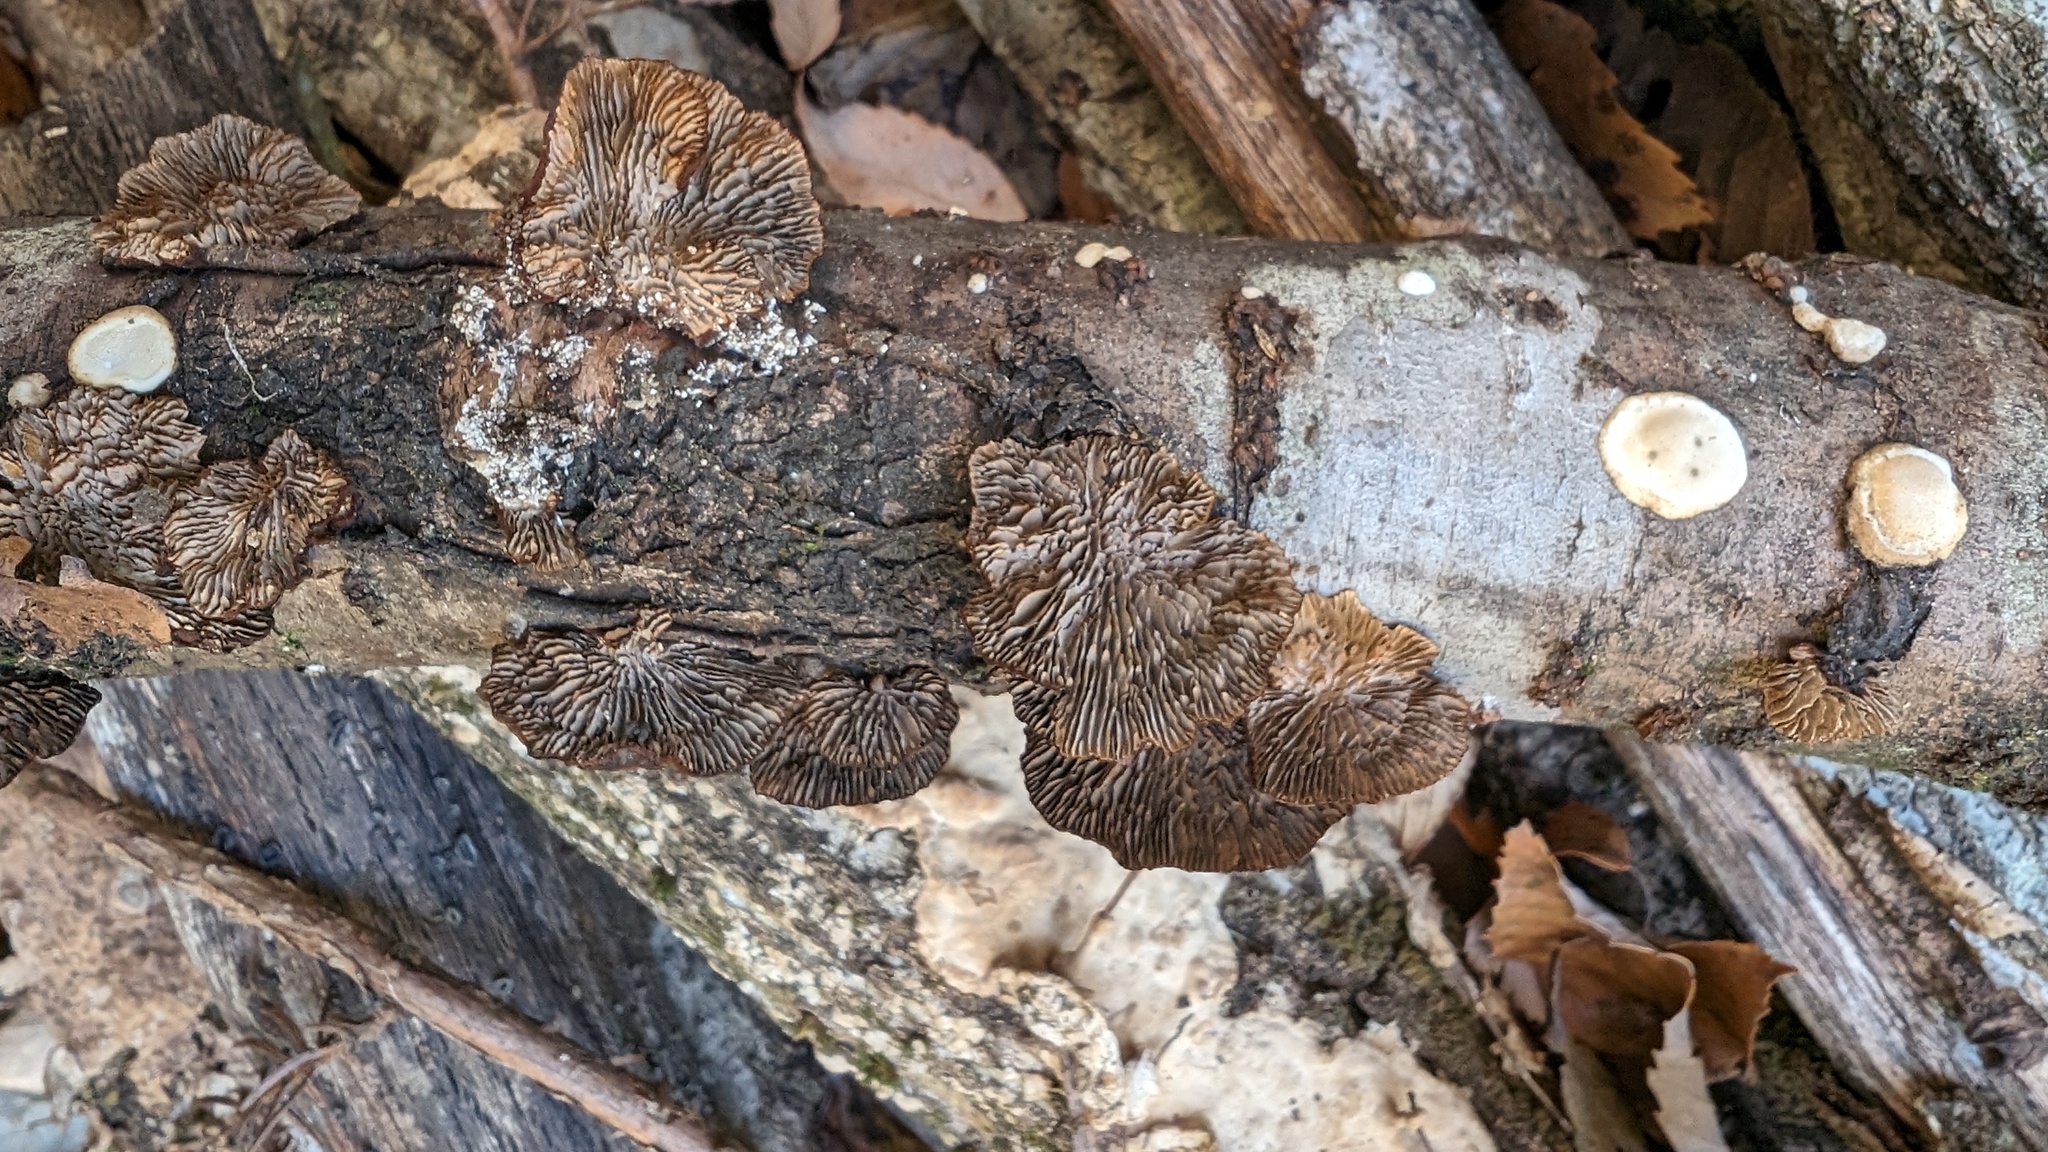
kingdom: Fungi
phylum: Basidiomycota
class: Agaricomycetes
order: Polyporales
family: Polyporaceae
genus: Daedaleopsis
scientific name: Daedaleopsis tricolor
